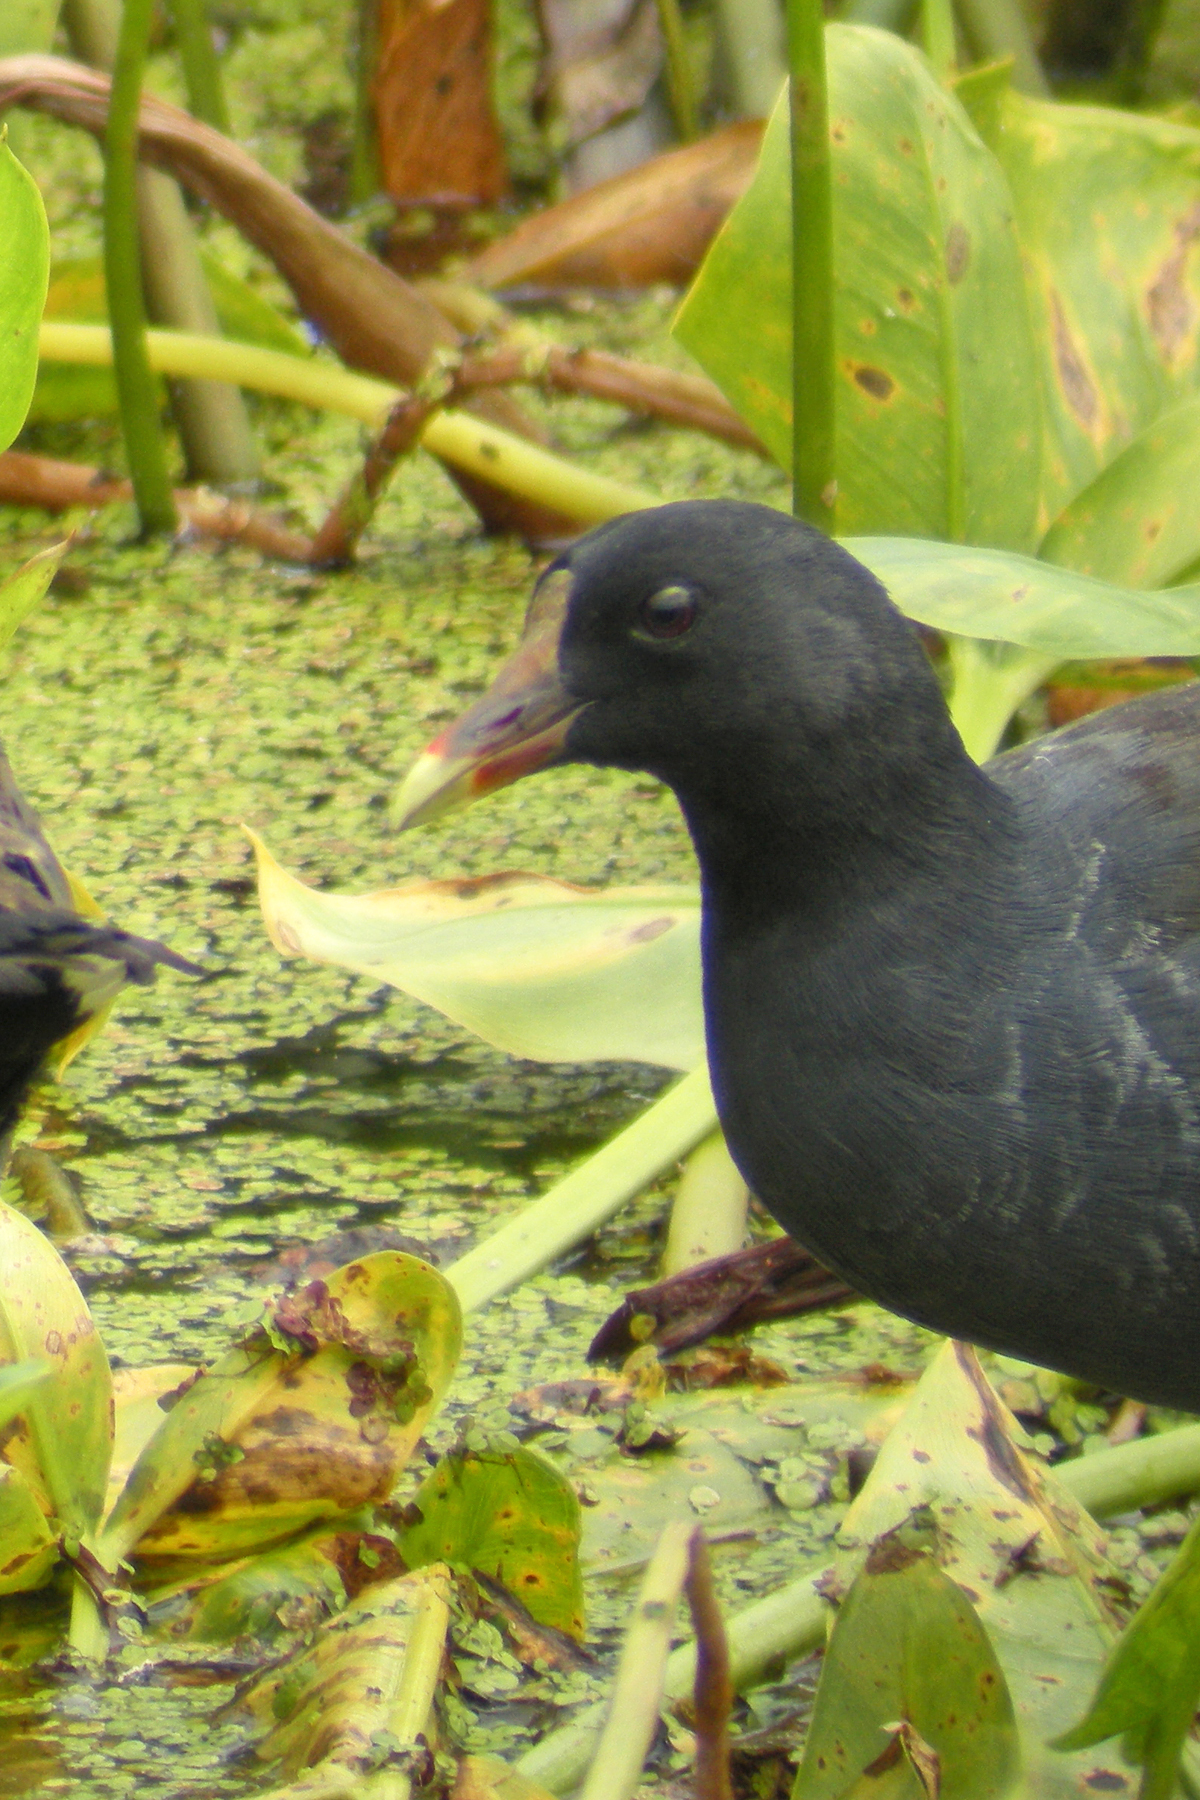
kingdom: Animalia
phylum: Chordata
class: Aves
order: Gruiformes
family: Rallidae
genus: Gallinula
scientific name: Gallinula chloropus
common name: Common moorhen
